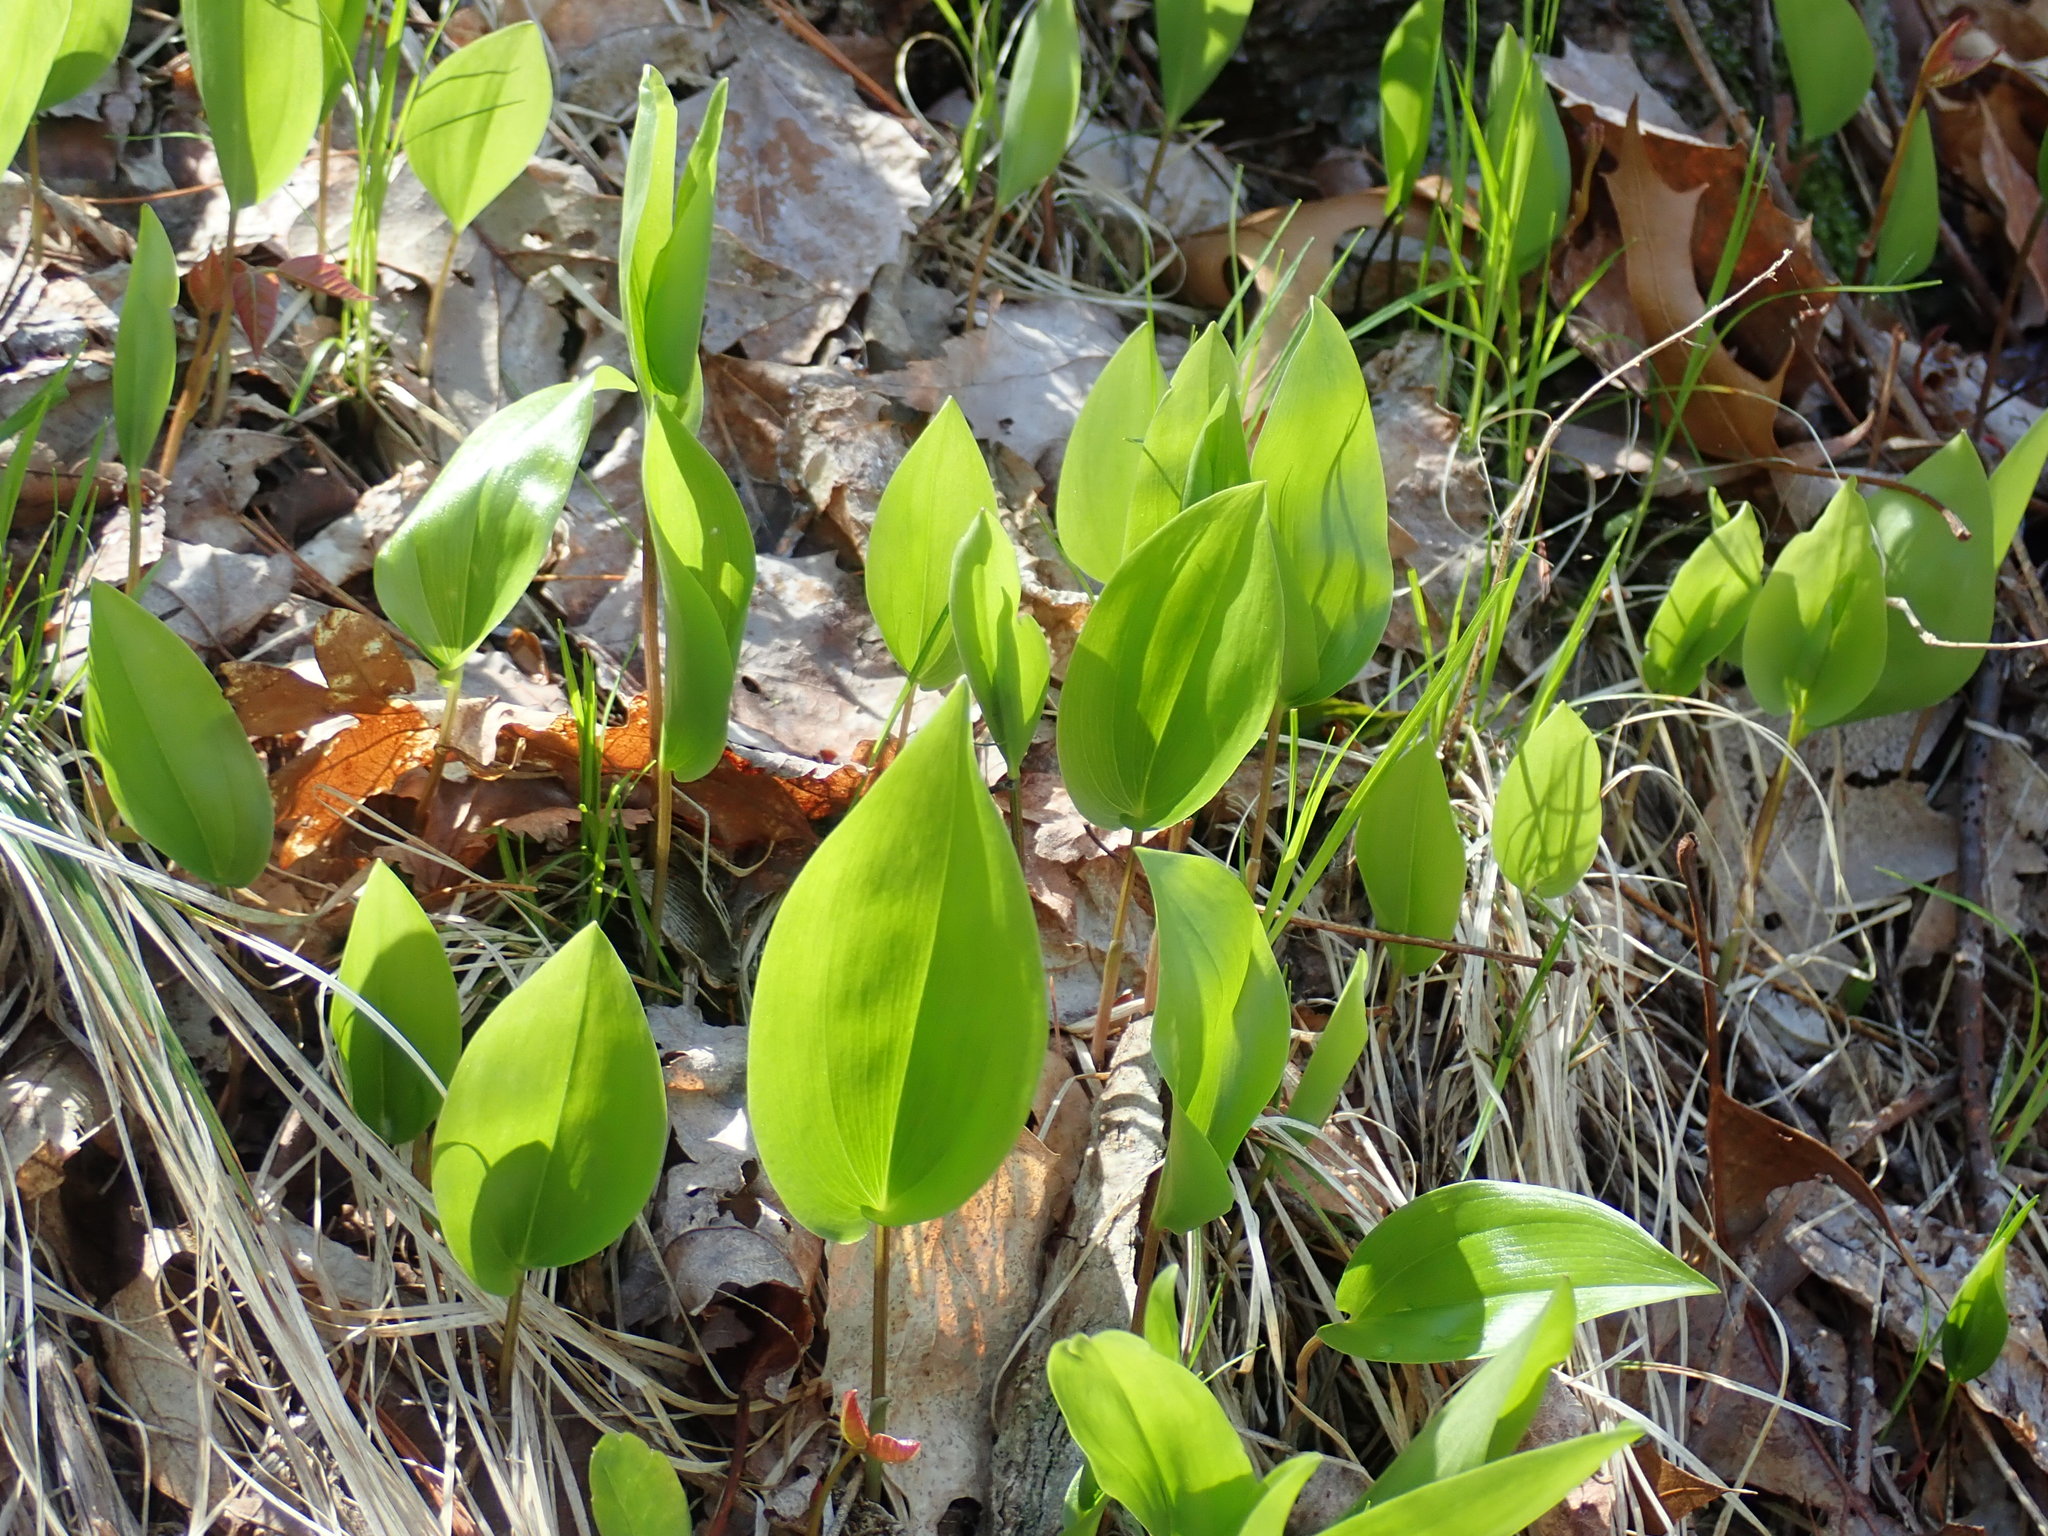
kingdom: Plantae
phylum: Tracheophyta
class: Liliopsida
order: Asparagales
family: Asparagaceae
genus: Maianthemum
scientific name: Maianthemum canadense
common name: False lily-of-the-valley
